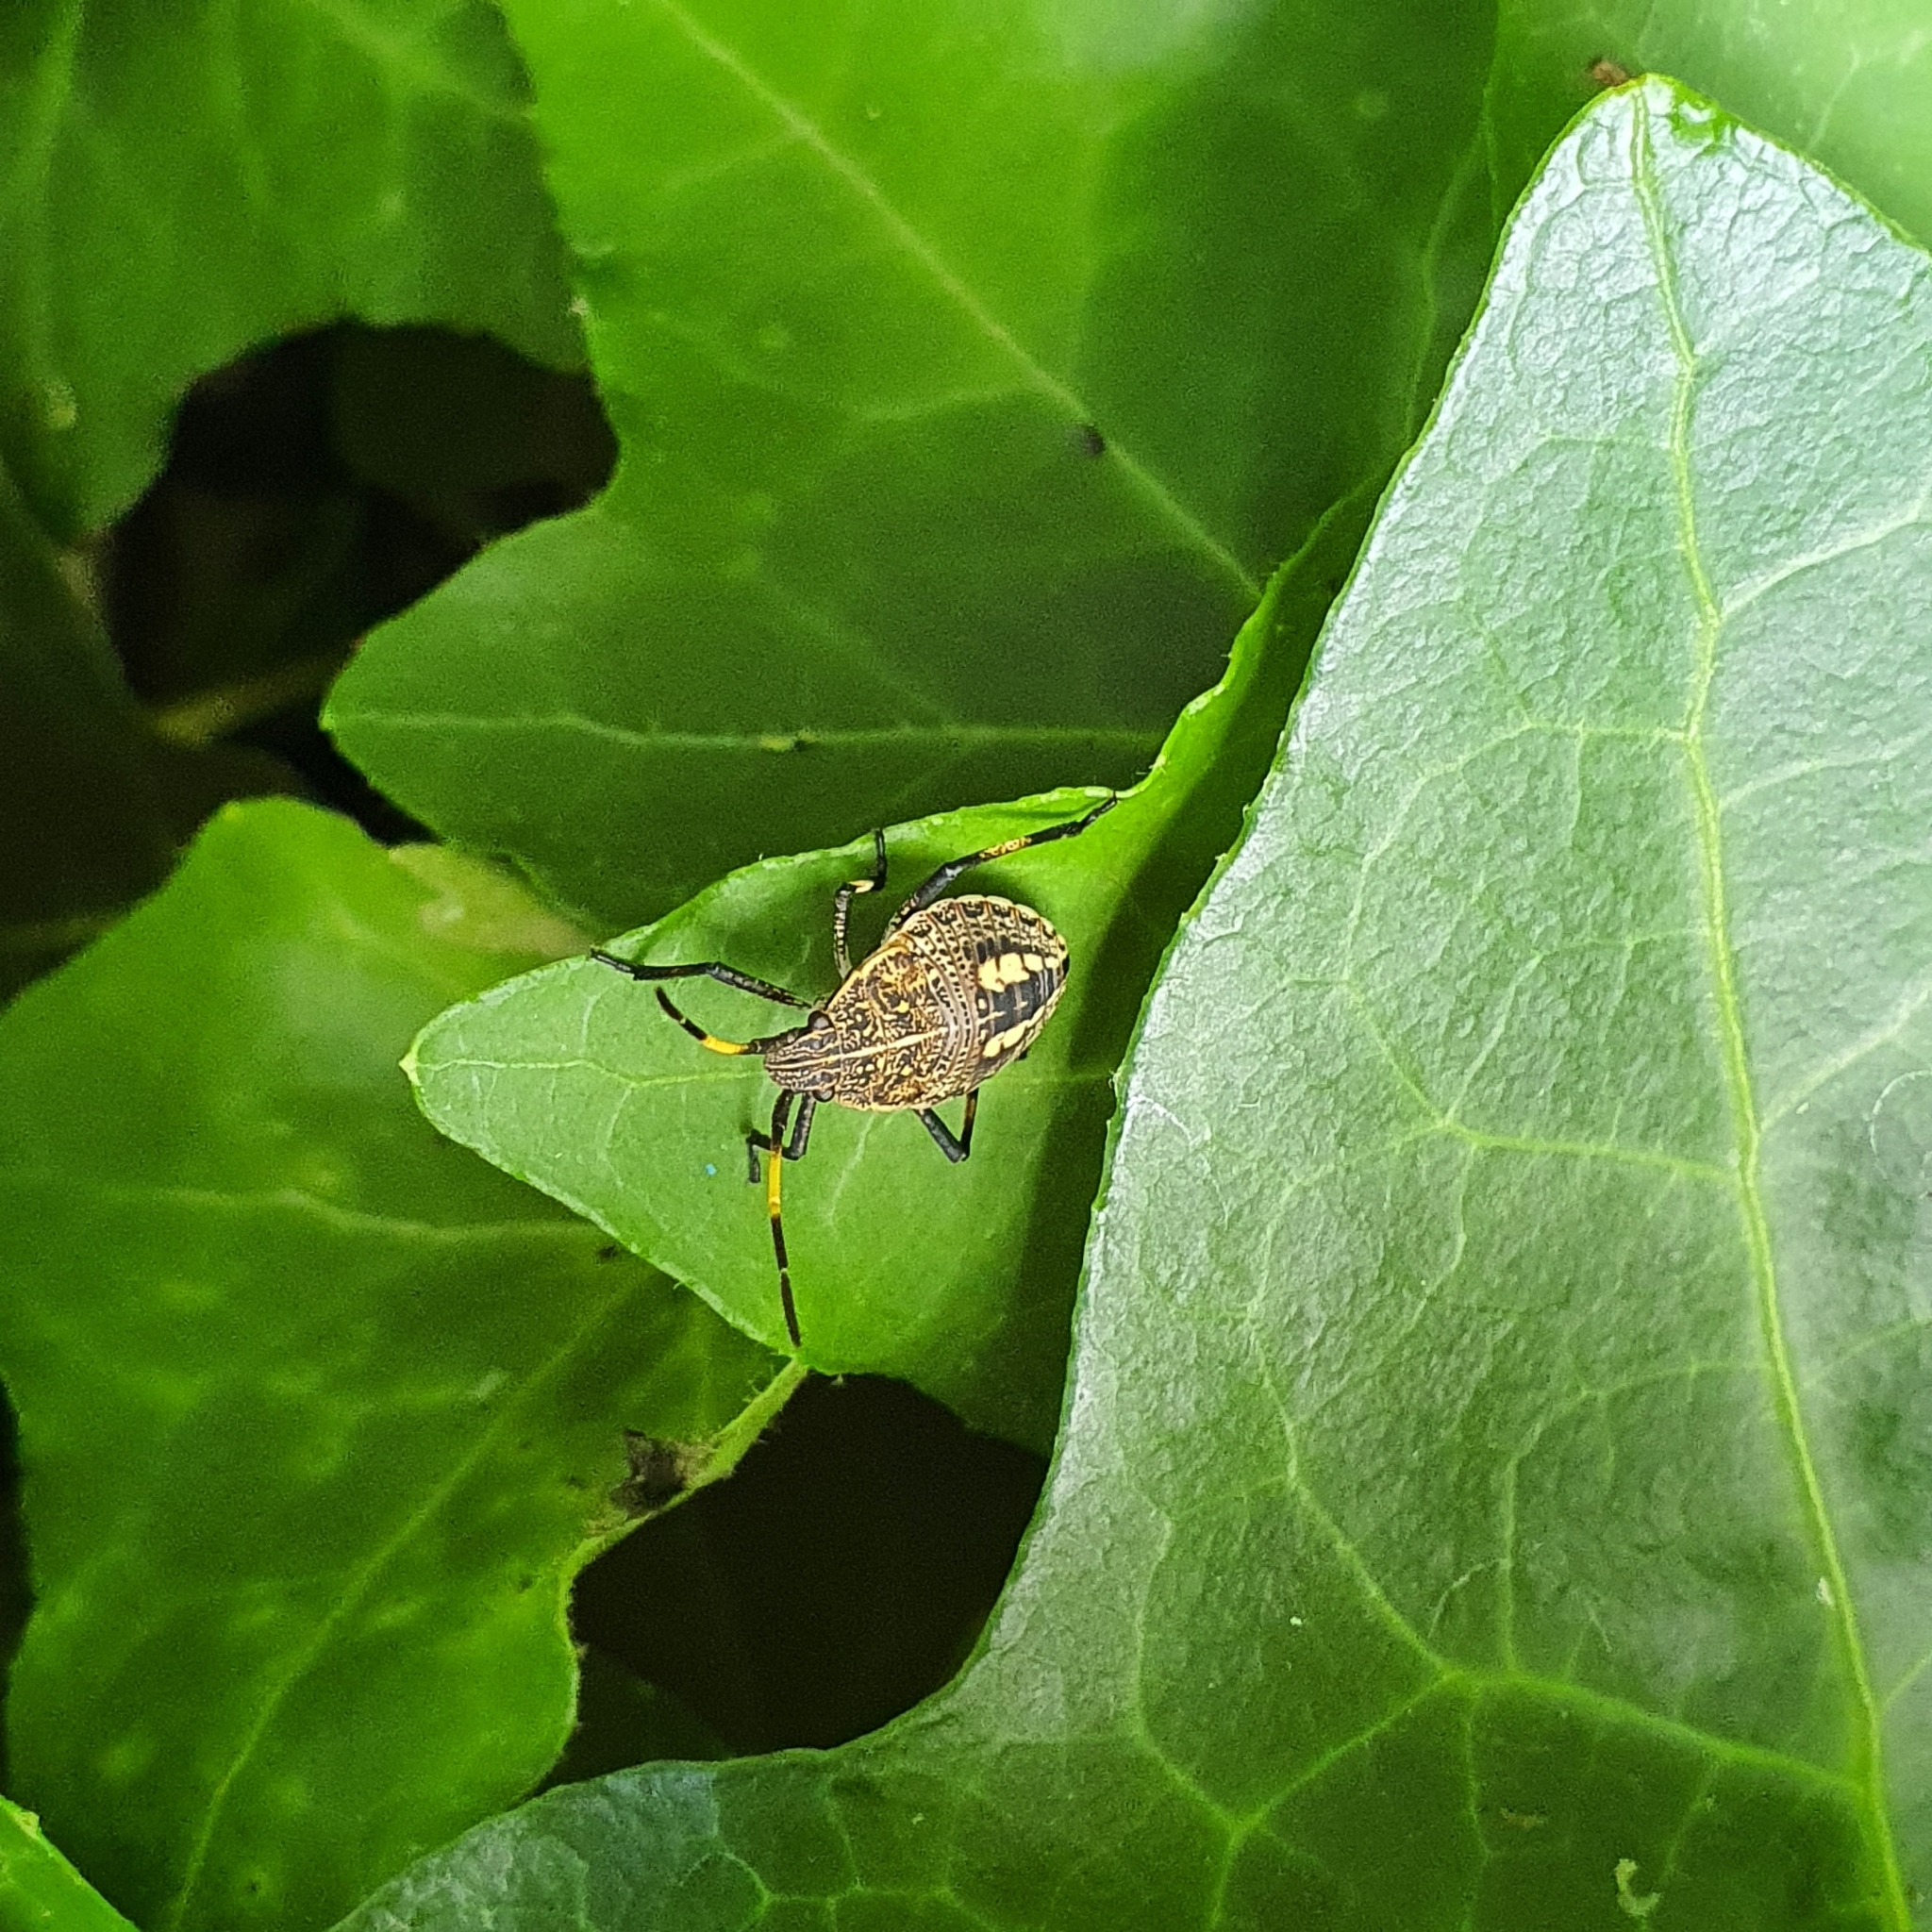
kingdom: Animalia
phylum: Arthropoda
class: Insecta
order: Hemiptera
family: Pentatomidae
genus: Poecilometis
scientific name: Poecilometis
